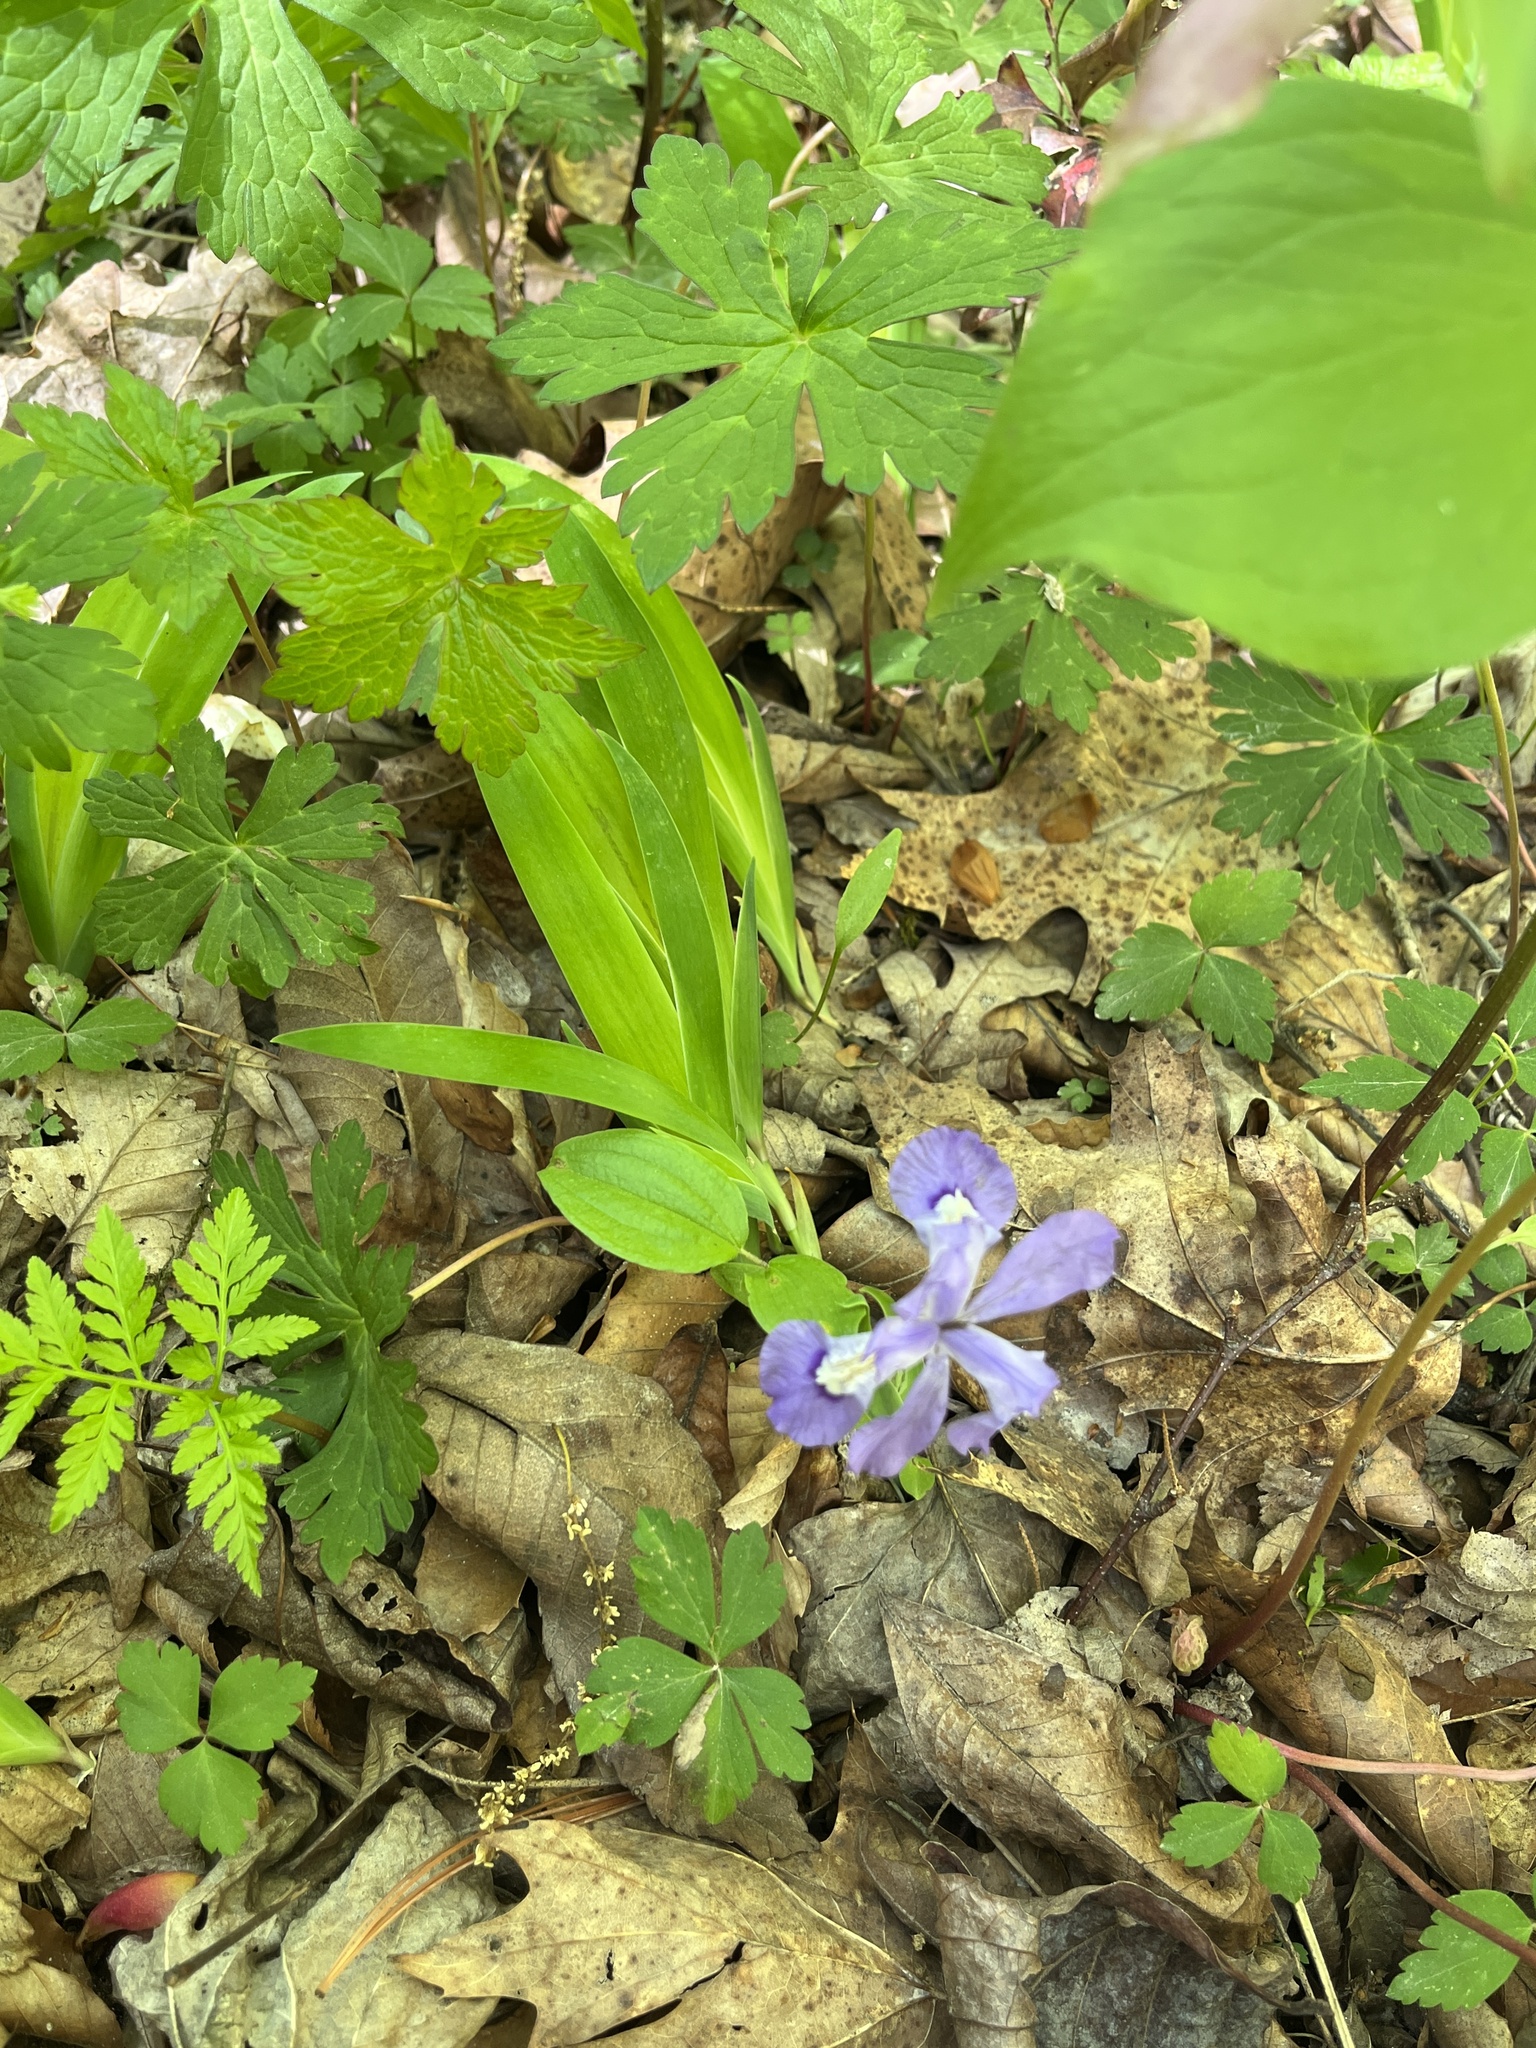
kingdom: Plantae
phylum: Tracheophyta
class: Liliopsida
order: Asparagales
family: Iridaceae
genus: Iris
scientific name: Iris cristata
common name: Crested iris
